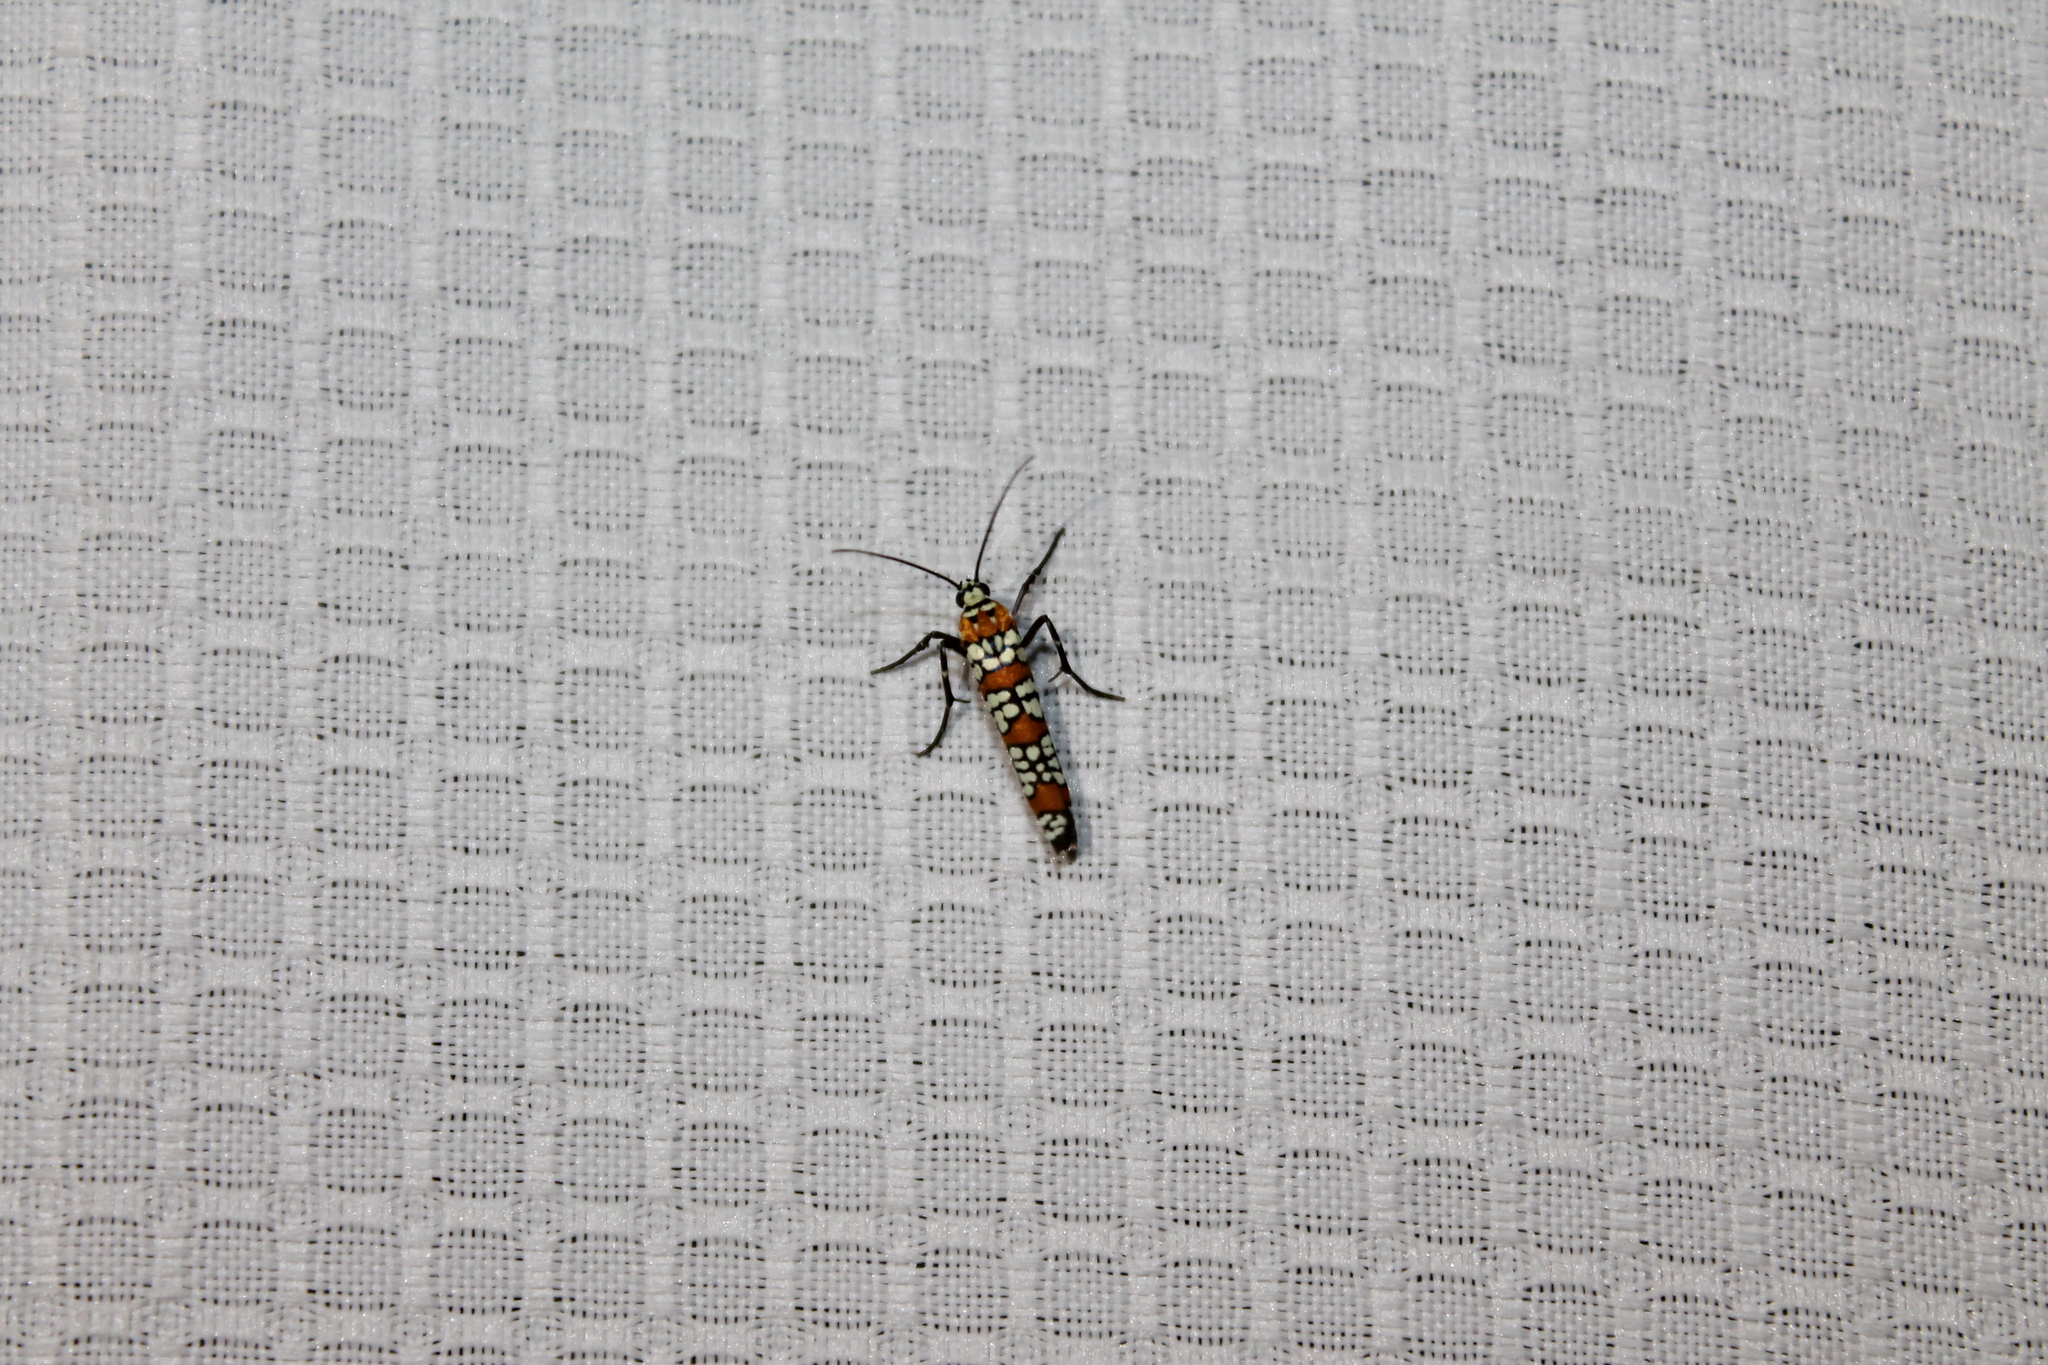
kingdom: Animalia
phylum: Arthropoda
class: Insecta
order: Lepidoptera
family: Attevidae
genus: Atteva
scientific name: Atteva punctella
